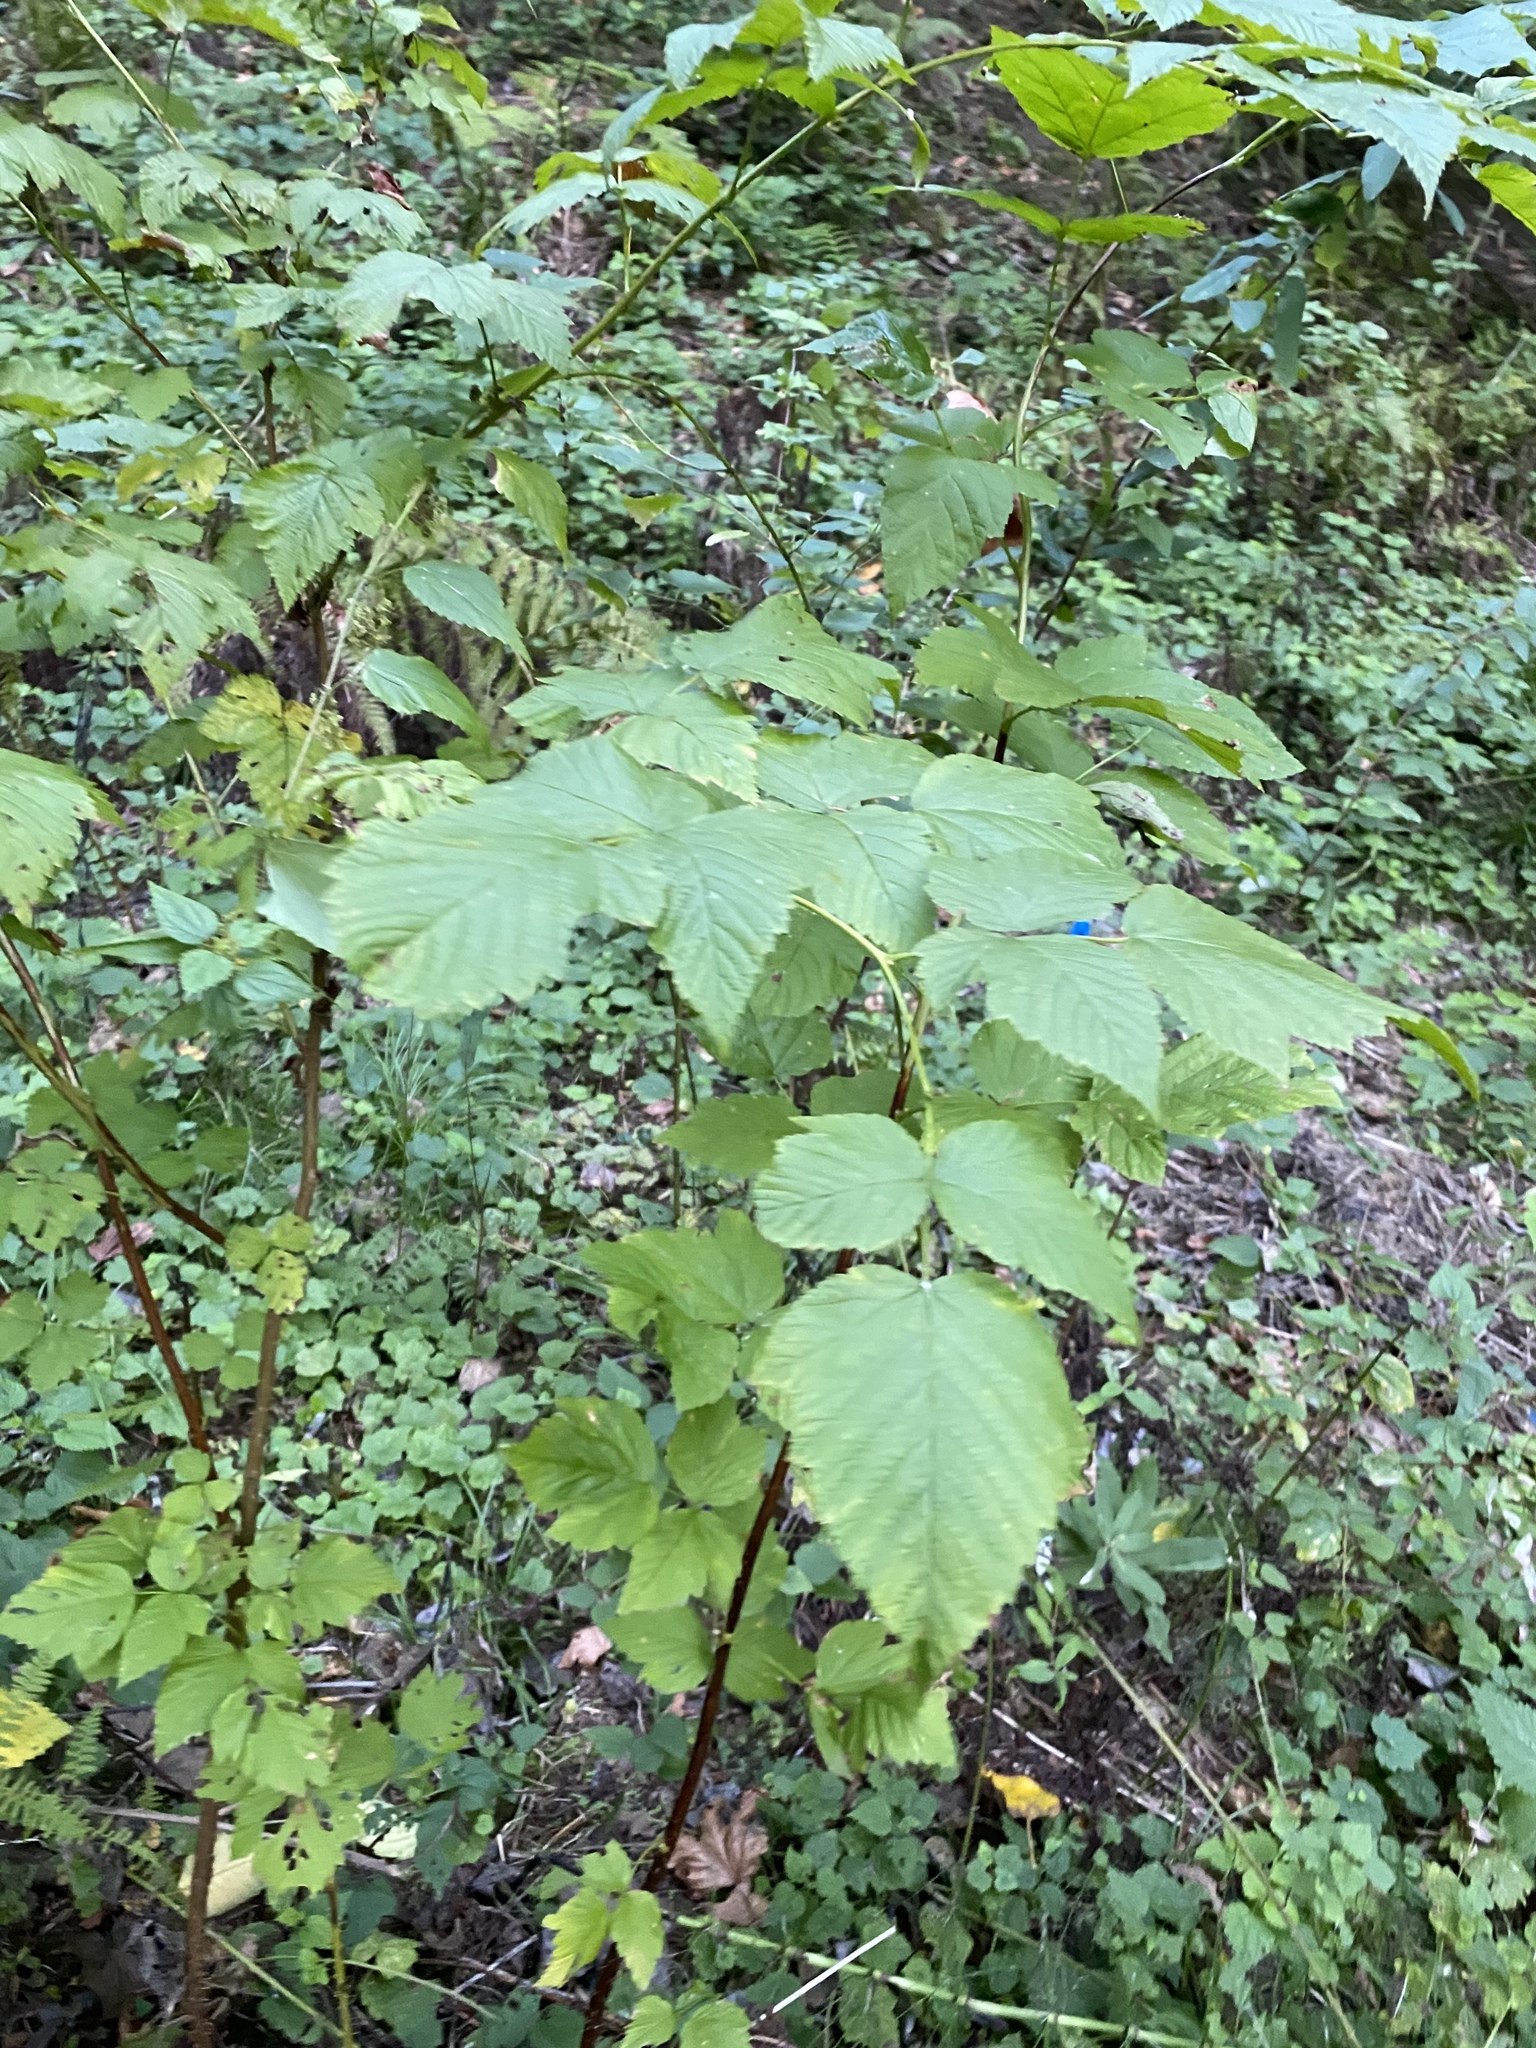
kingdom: Plantae
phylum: Tracheophyta
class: Magnoliopsida
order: Rosales
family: Rosaceae
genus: Rubus
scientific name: Rubus spectabilis
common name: Salmonberry
